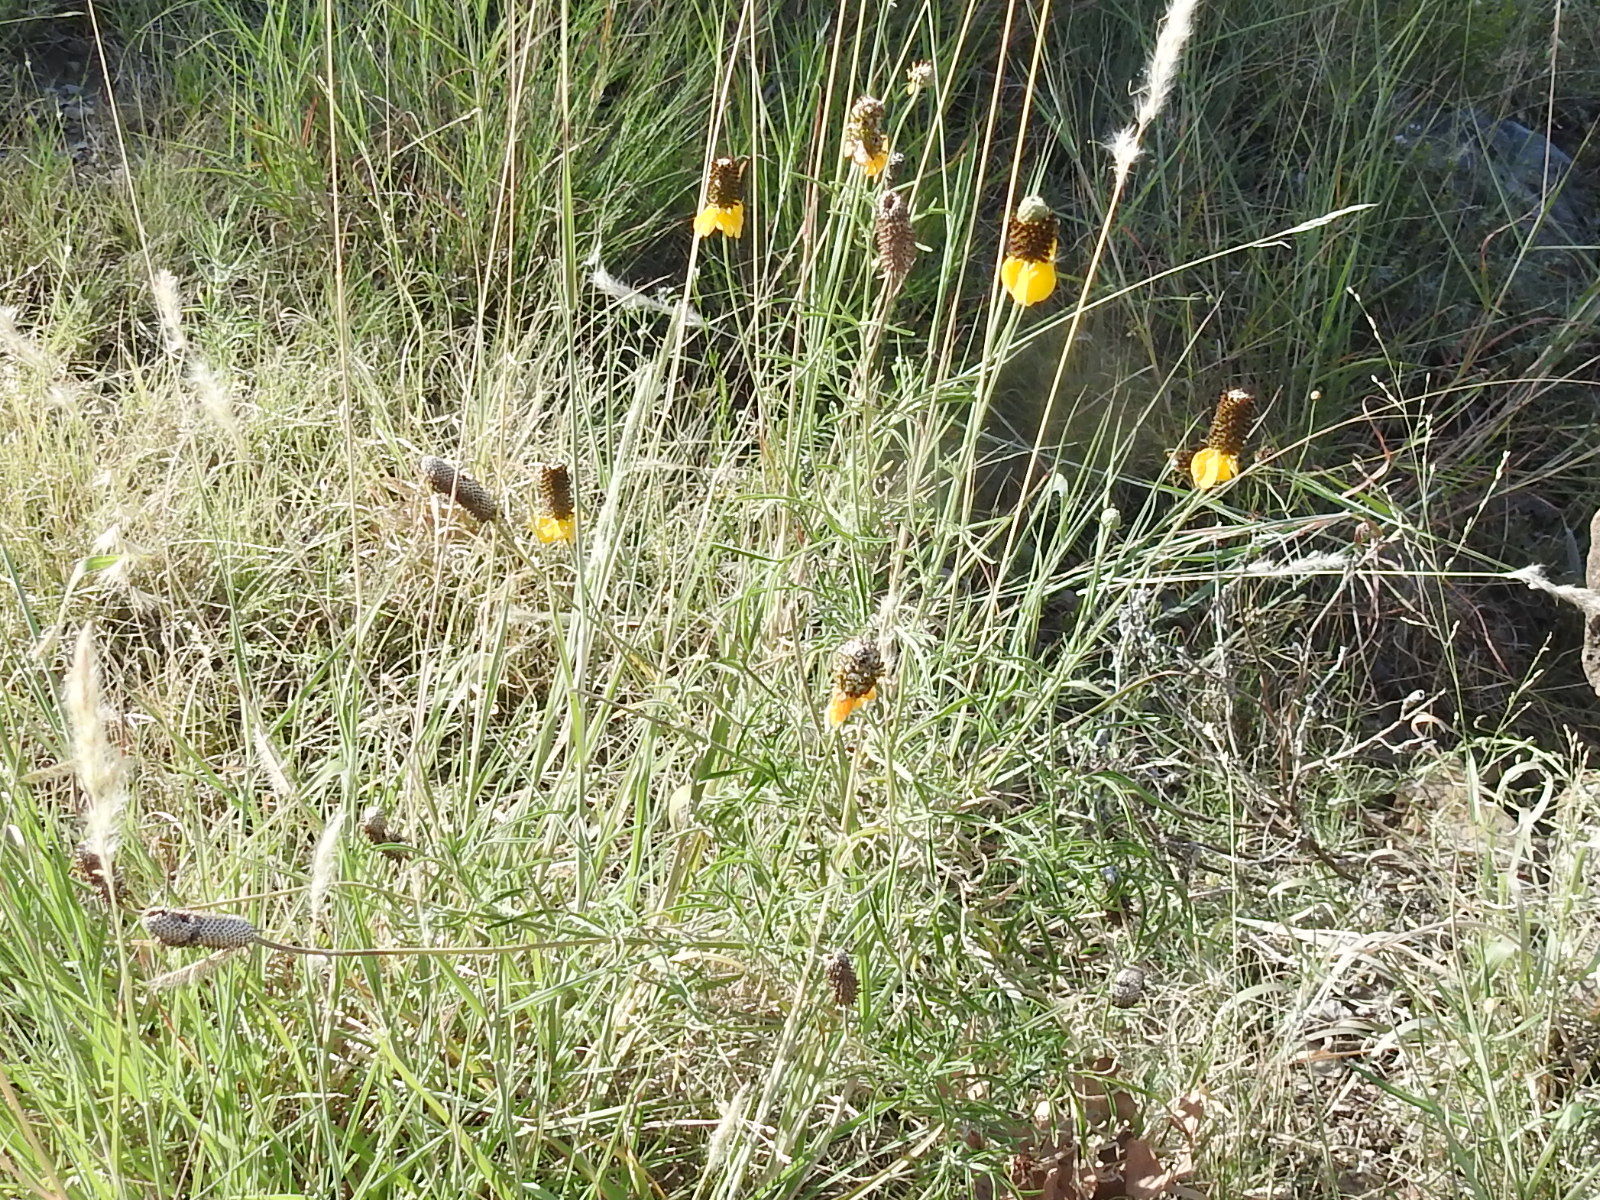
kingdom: Plantae
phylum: Tracheophyta
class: Magnoliopsida
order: Asterales
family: Asteraceae
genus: Ratibida
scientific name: Ratibida columnifera
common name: Prairie coneflower
